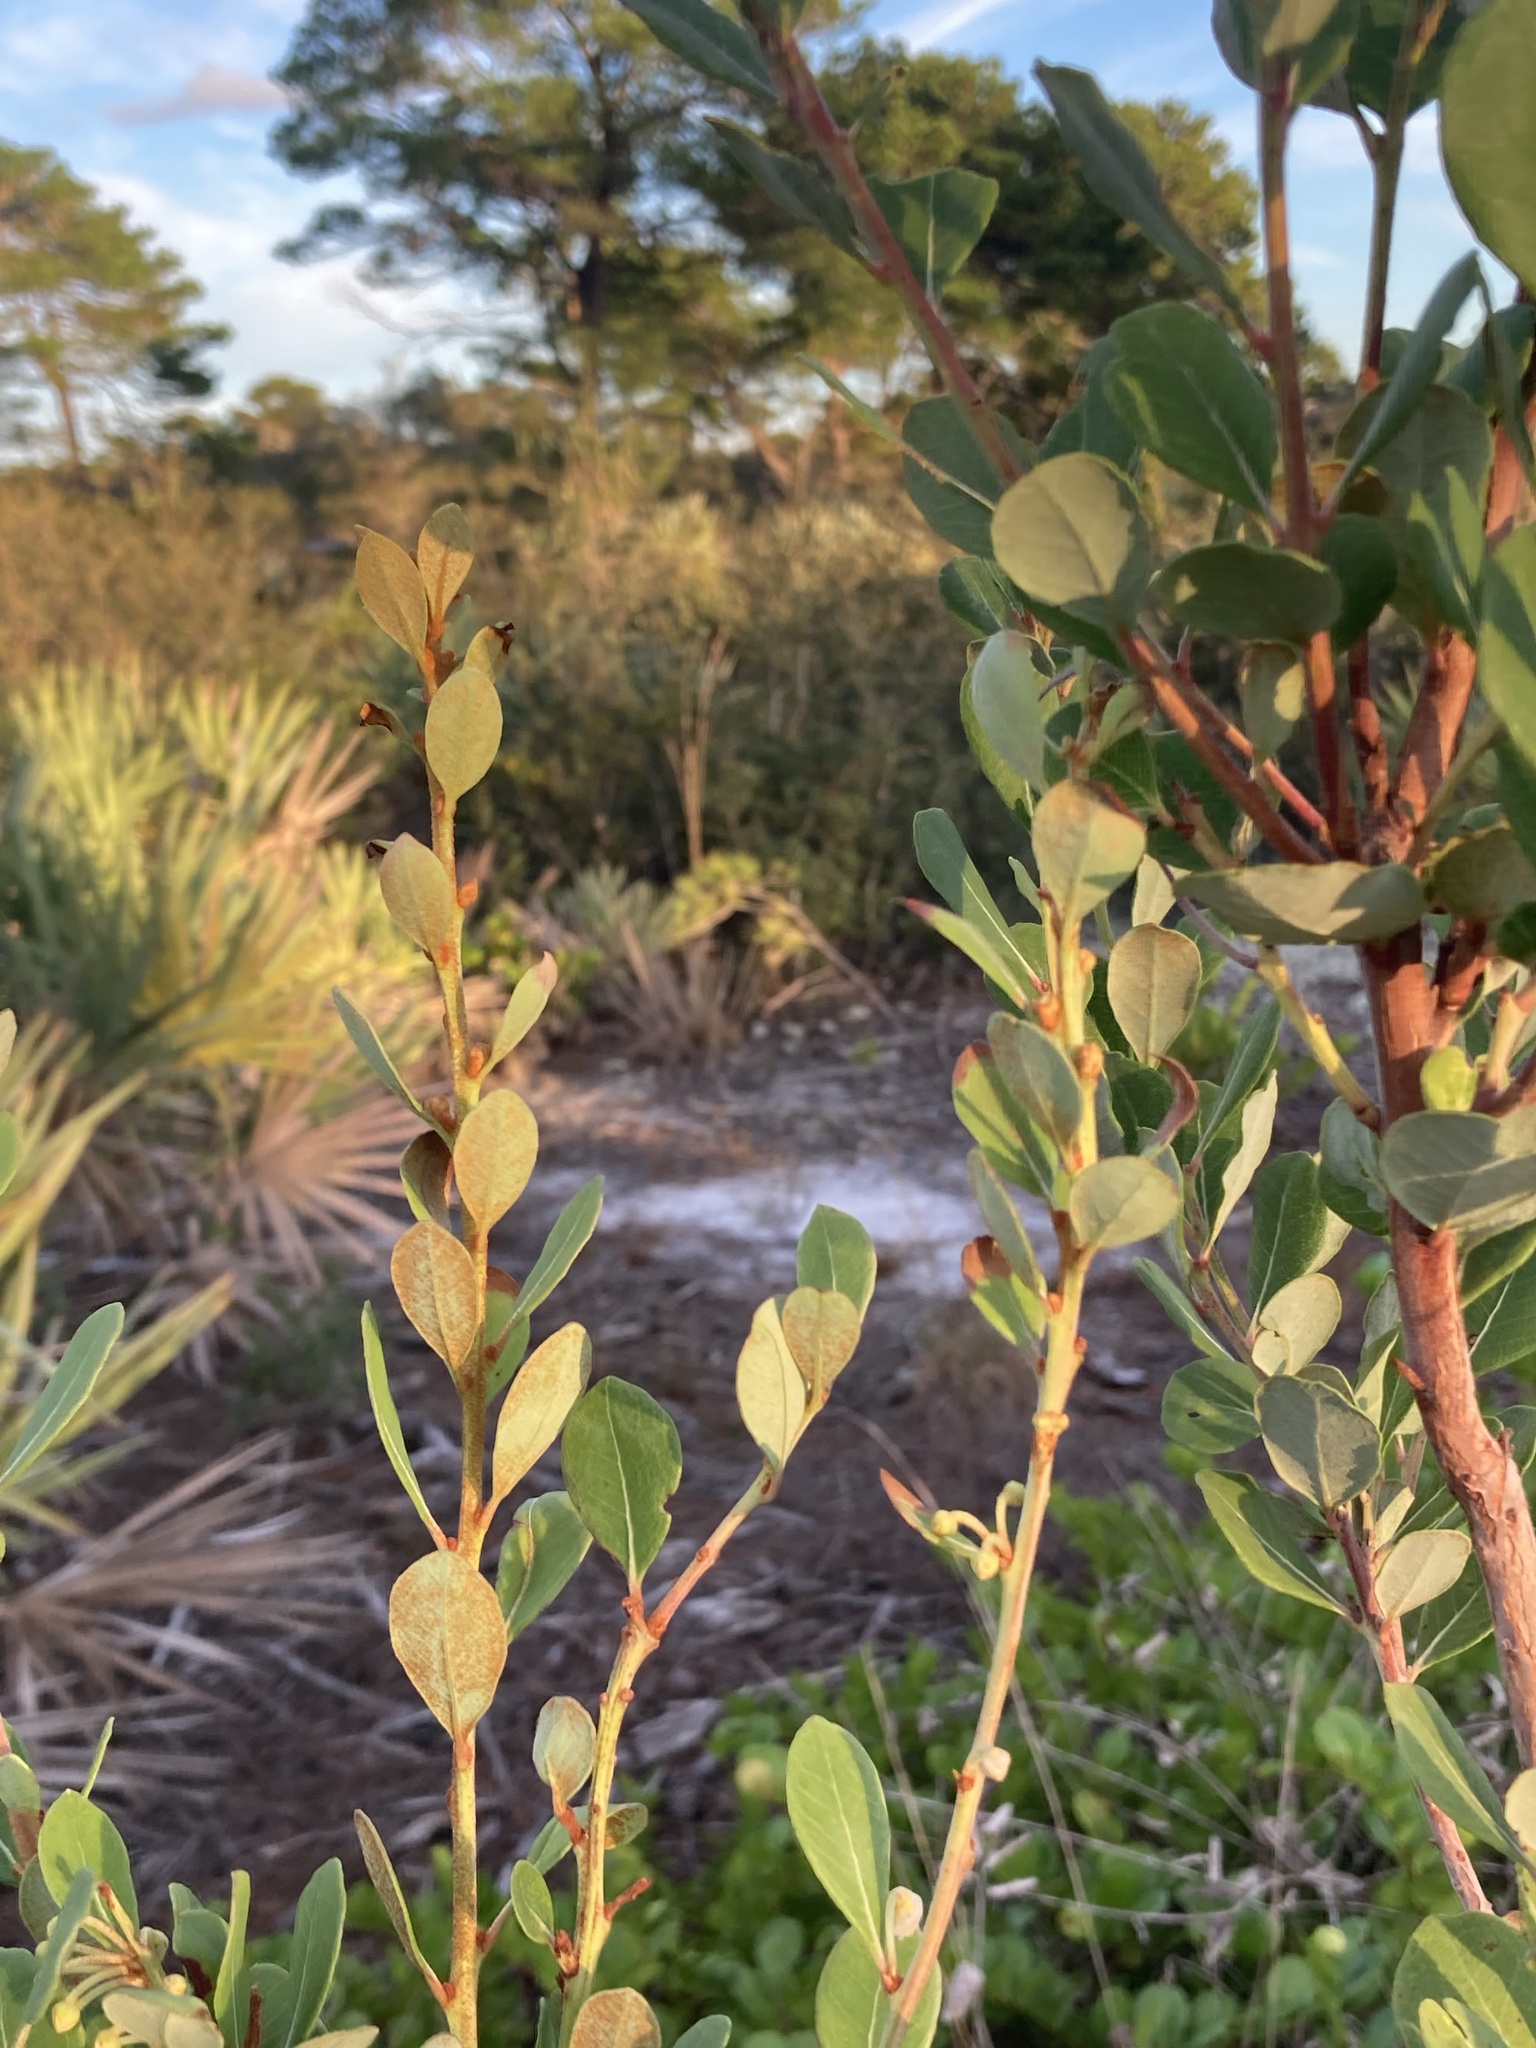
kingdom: Plantae
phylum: Tracheophyta
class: Magnoliopsida
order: Ericales
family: Ericaceae
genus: Lyonia
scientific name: Lyonia fruticosa
